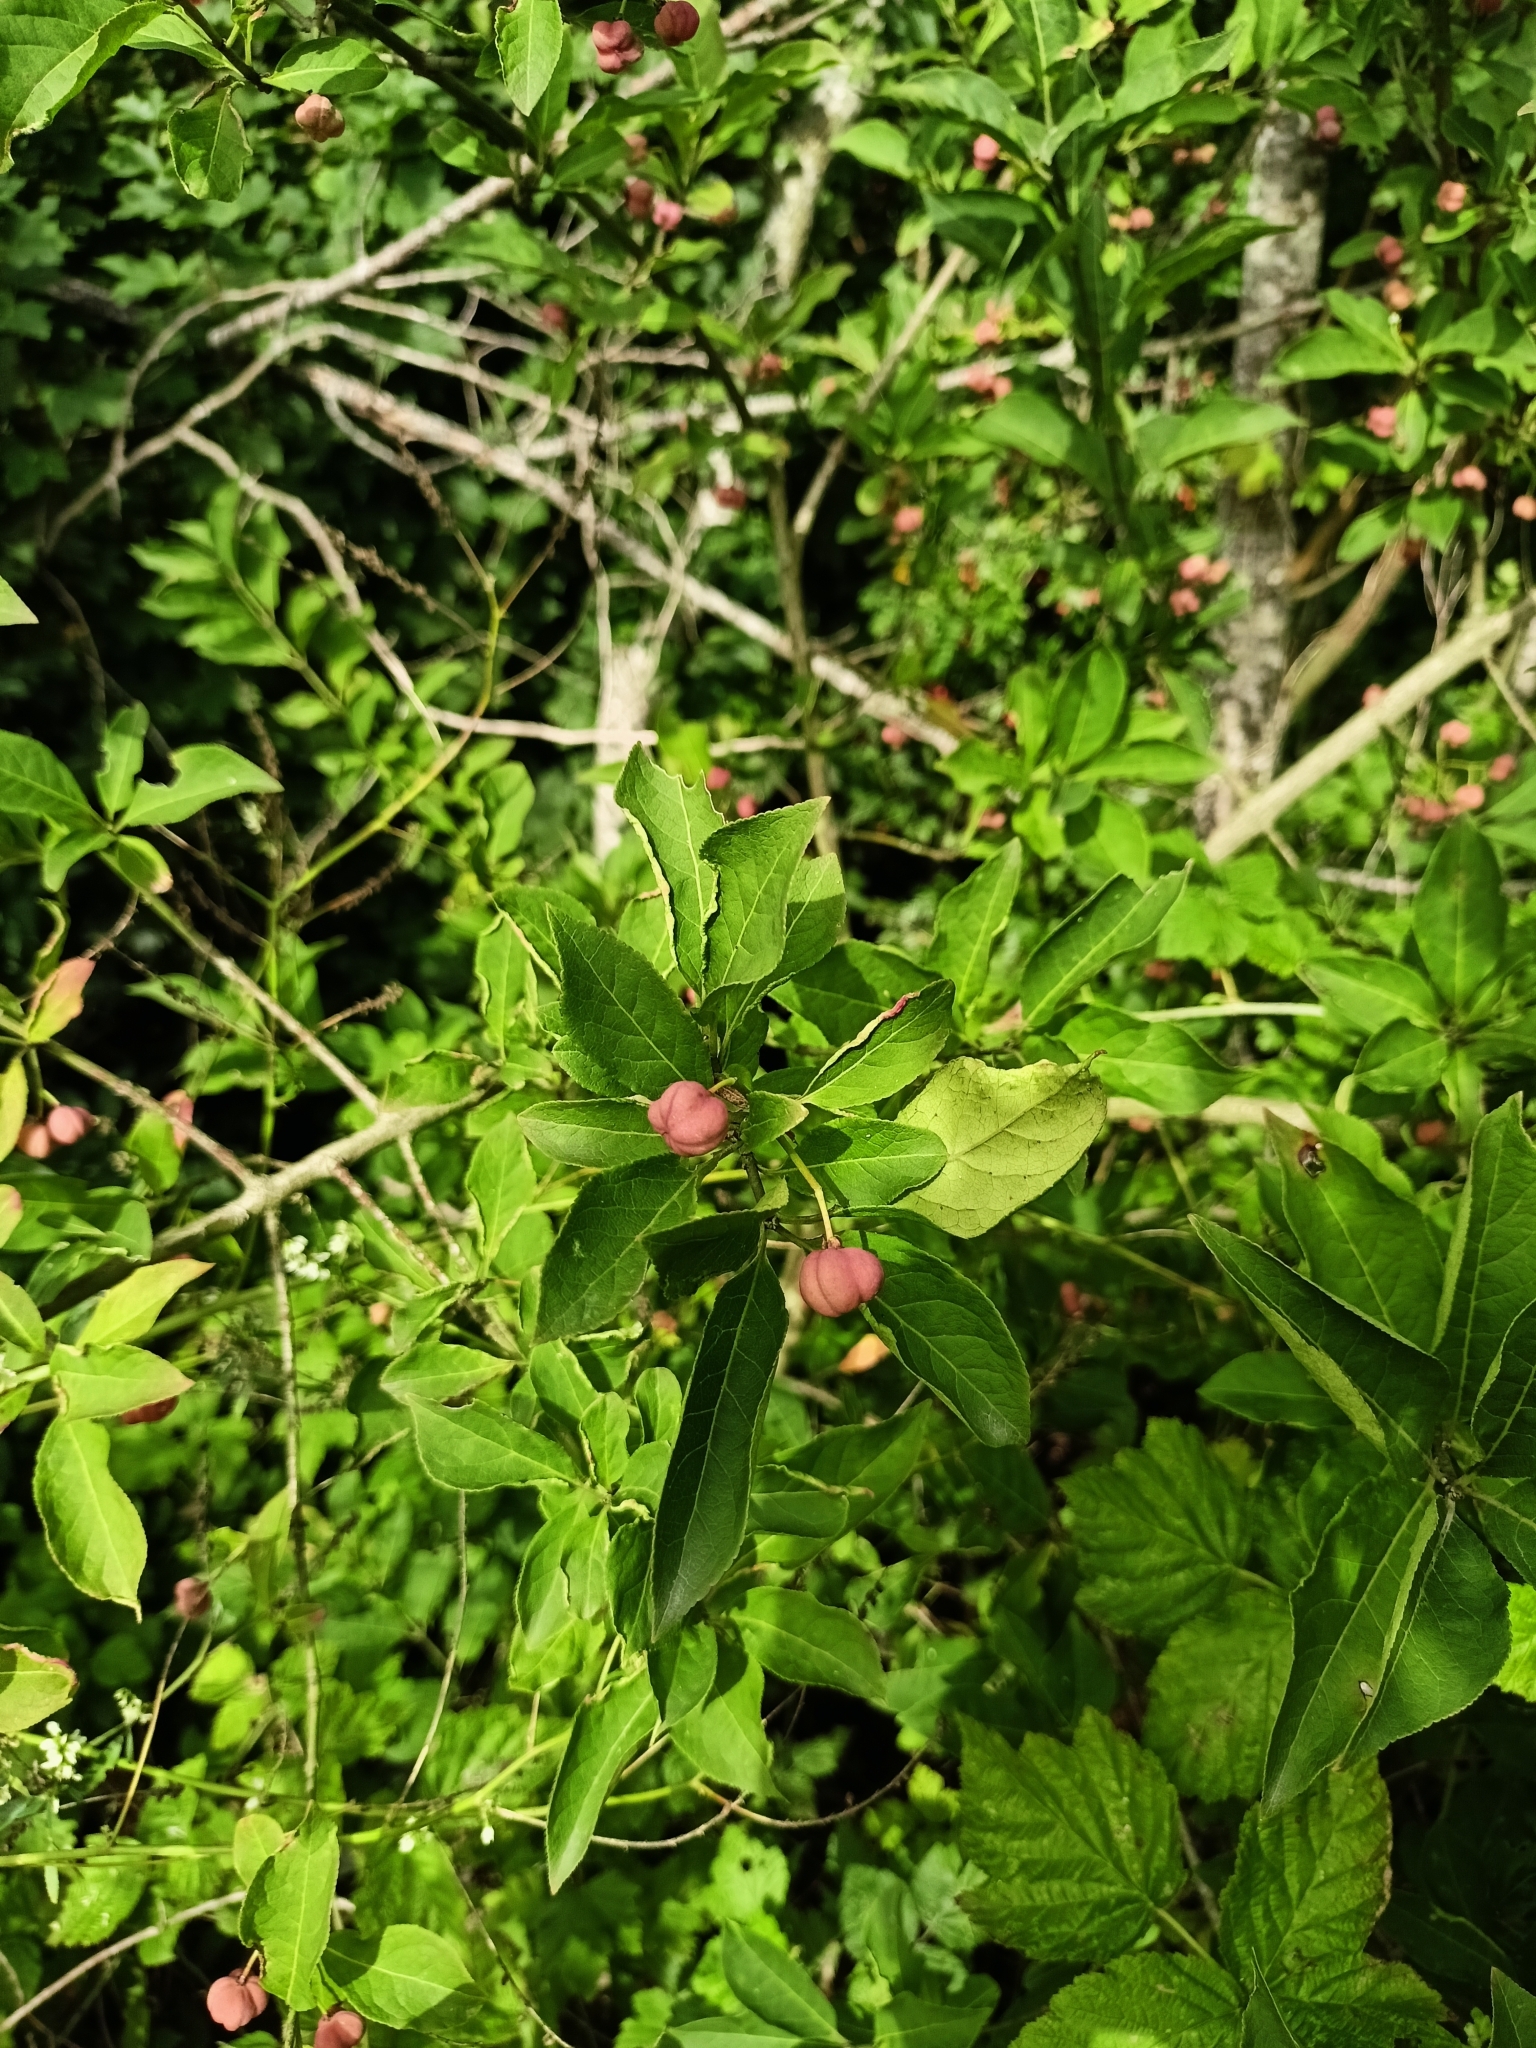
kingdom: Plantae
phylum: Tracheophyta
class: Magnoliopsida
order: Celastrales
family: Celastraceae
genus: Euonymus
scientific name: Euonymus europaeus
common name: Spindle
